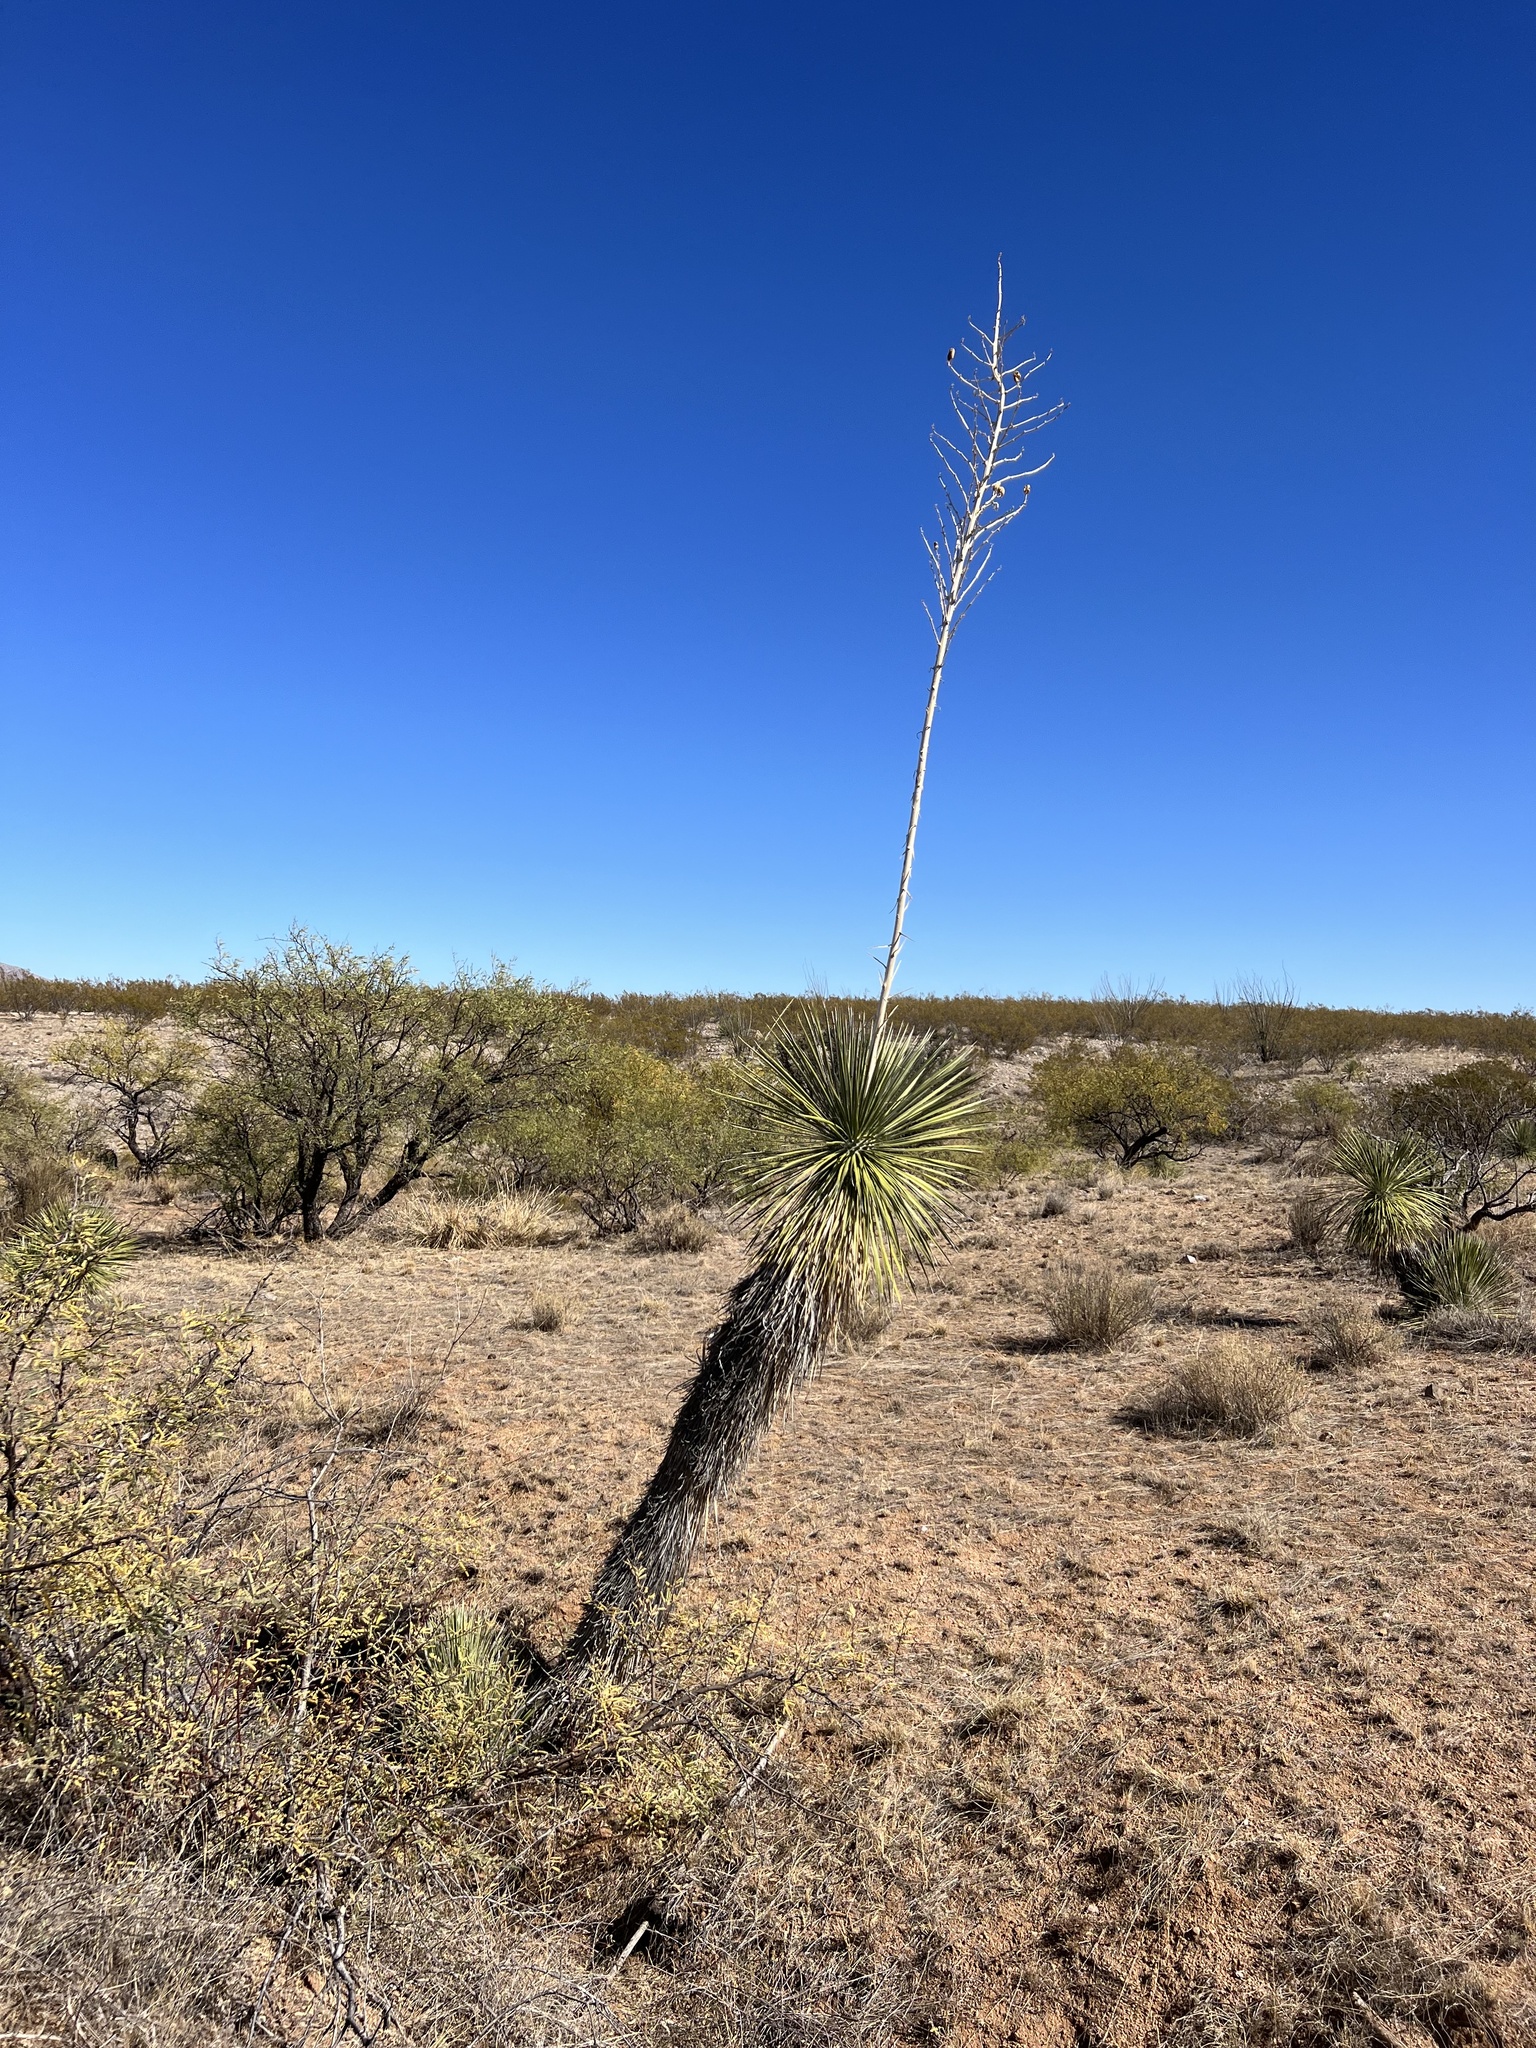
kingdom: Plantae
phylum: Tracheophyta
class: Liliopsida
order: Asparagales
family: Asparagaceae
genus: Yucca
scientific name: Yucca elata
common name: Palmella
